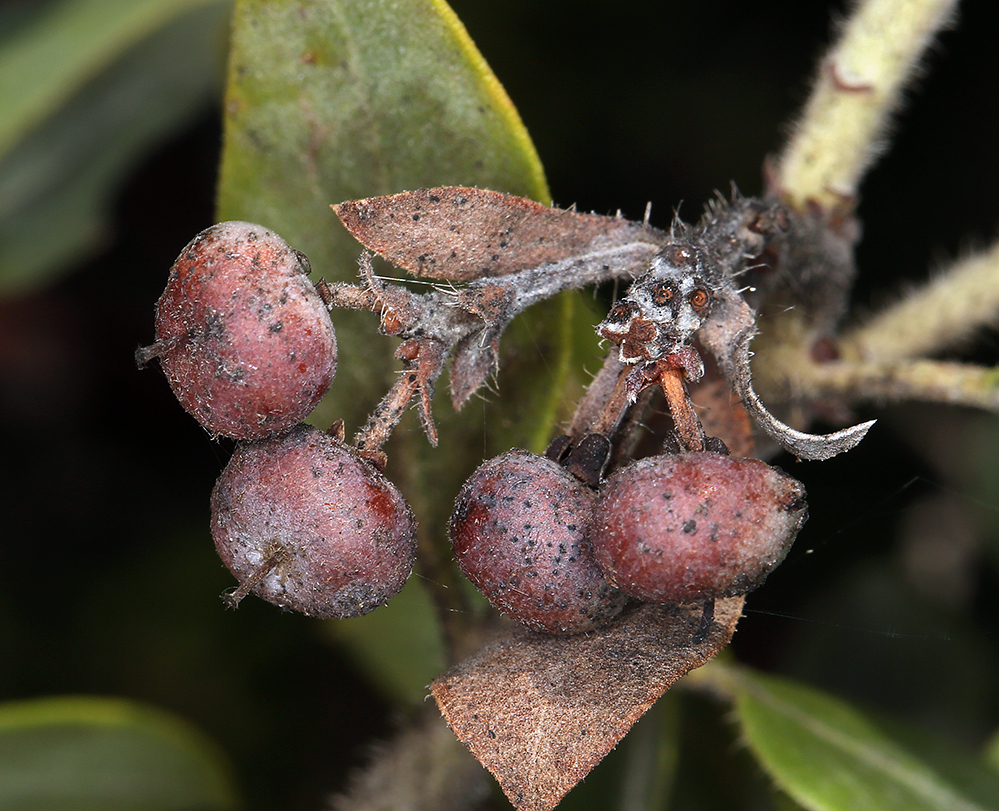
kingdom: Plantae
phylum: Tracheophyta
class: Magnoliopsida
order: Ericales
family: Ericaceae
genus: Arctostaphylos
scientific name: Arctostaphylos nortensis
